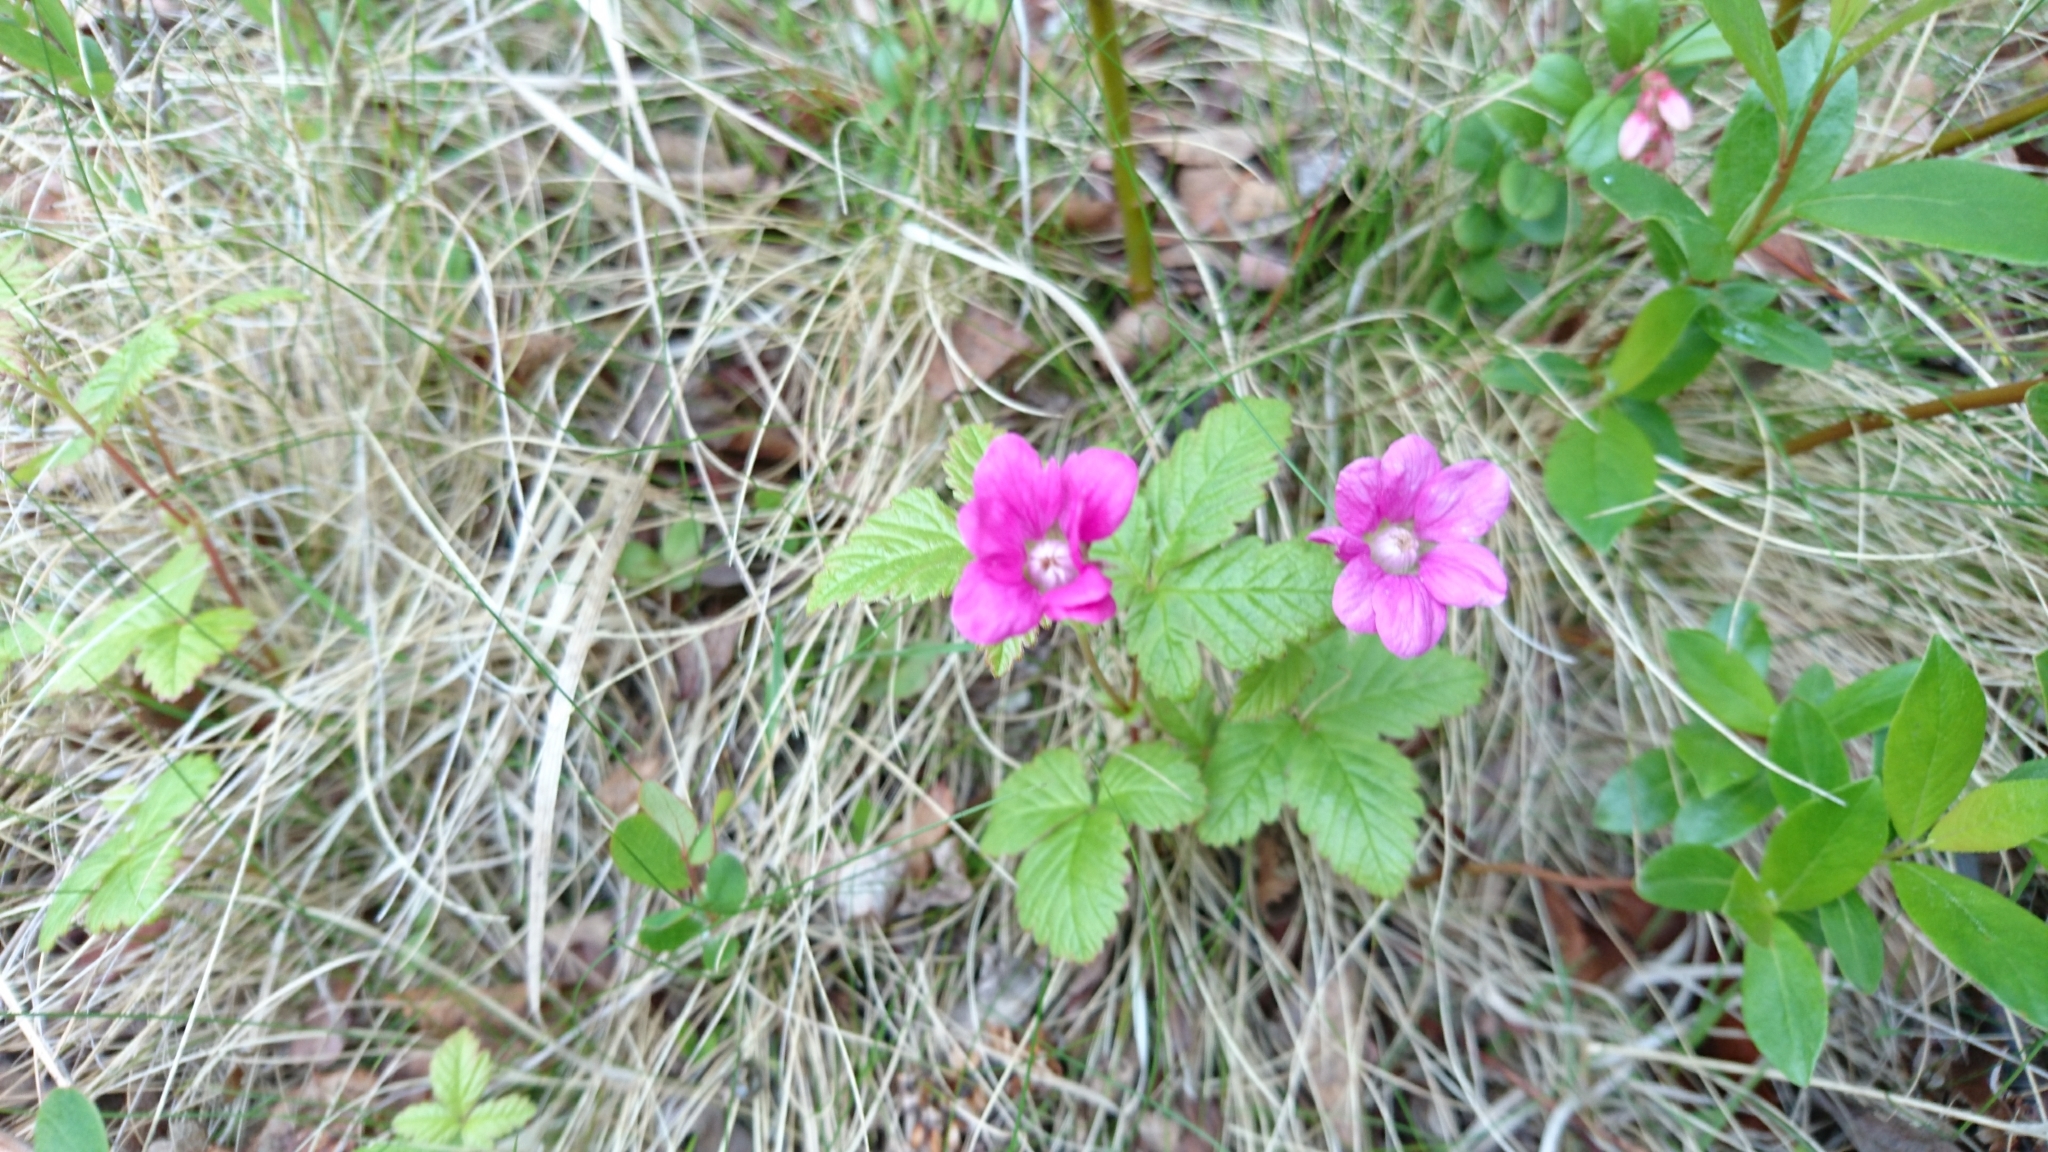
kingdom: Plantae
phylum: Tracheophyta
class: Magnoliopsida
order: Rosales
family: Rosaceae
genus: Rubus
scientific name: Rubus arcticus
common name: Arctic bramble
